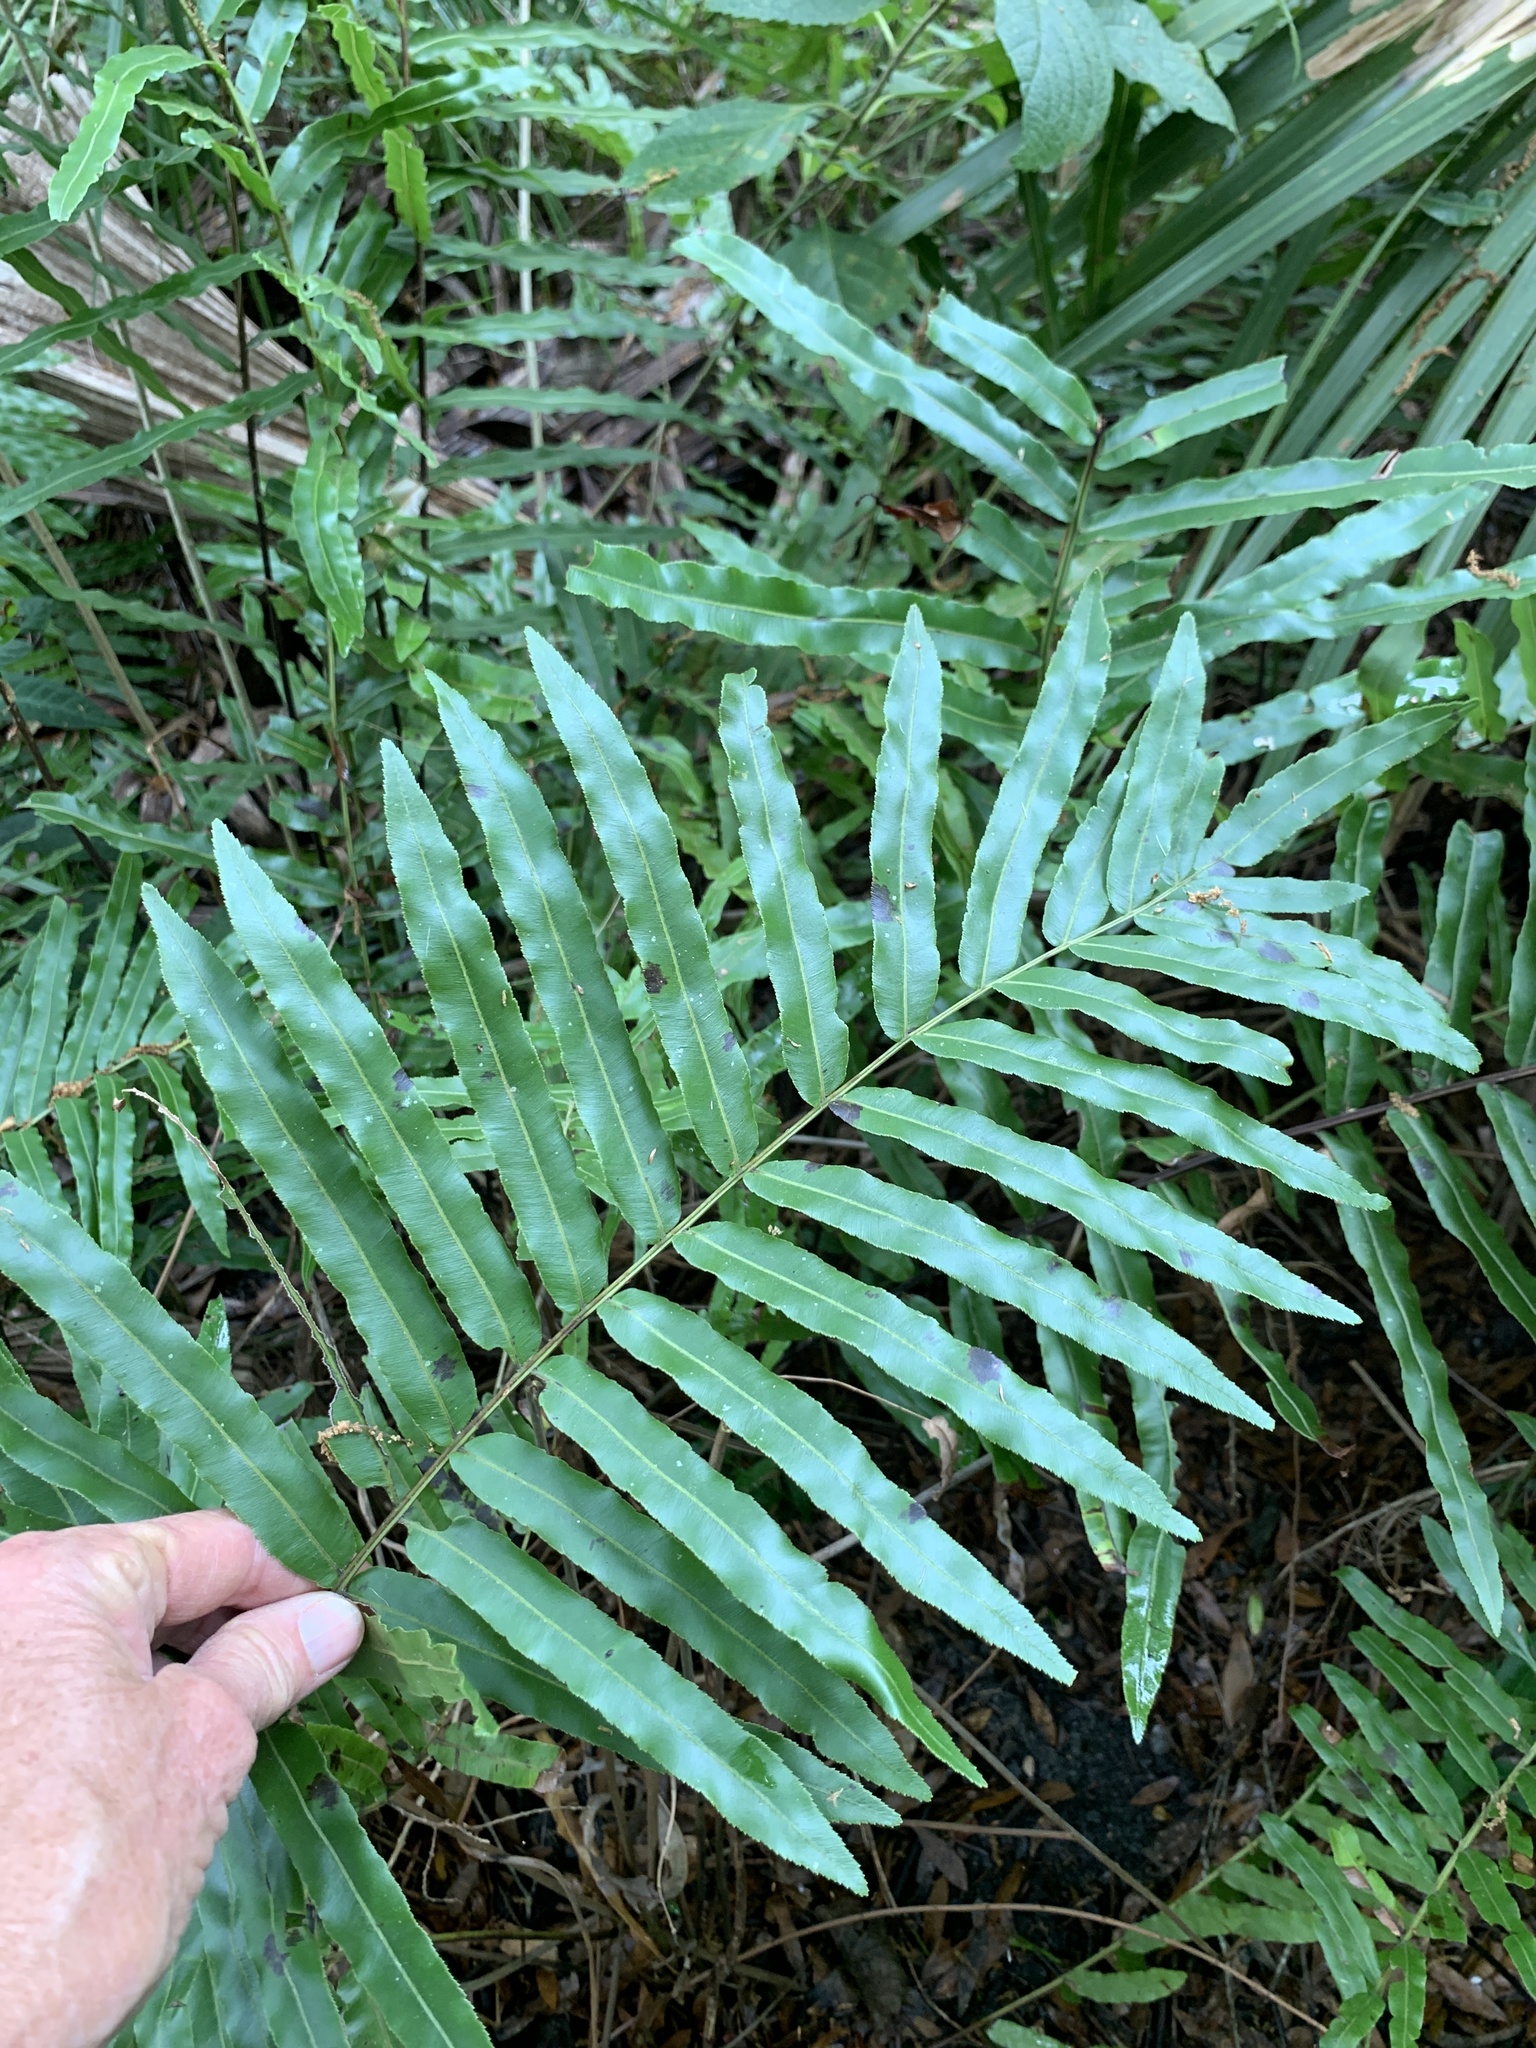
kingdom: Plantae
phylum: Tracheophyta
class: Polypodiopsida
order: Polypodiales
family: Blechnaceae
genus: Telmatoblechnum
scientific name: Telmatoblechnum serrulatum
